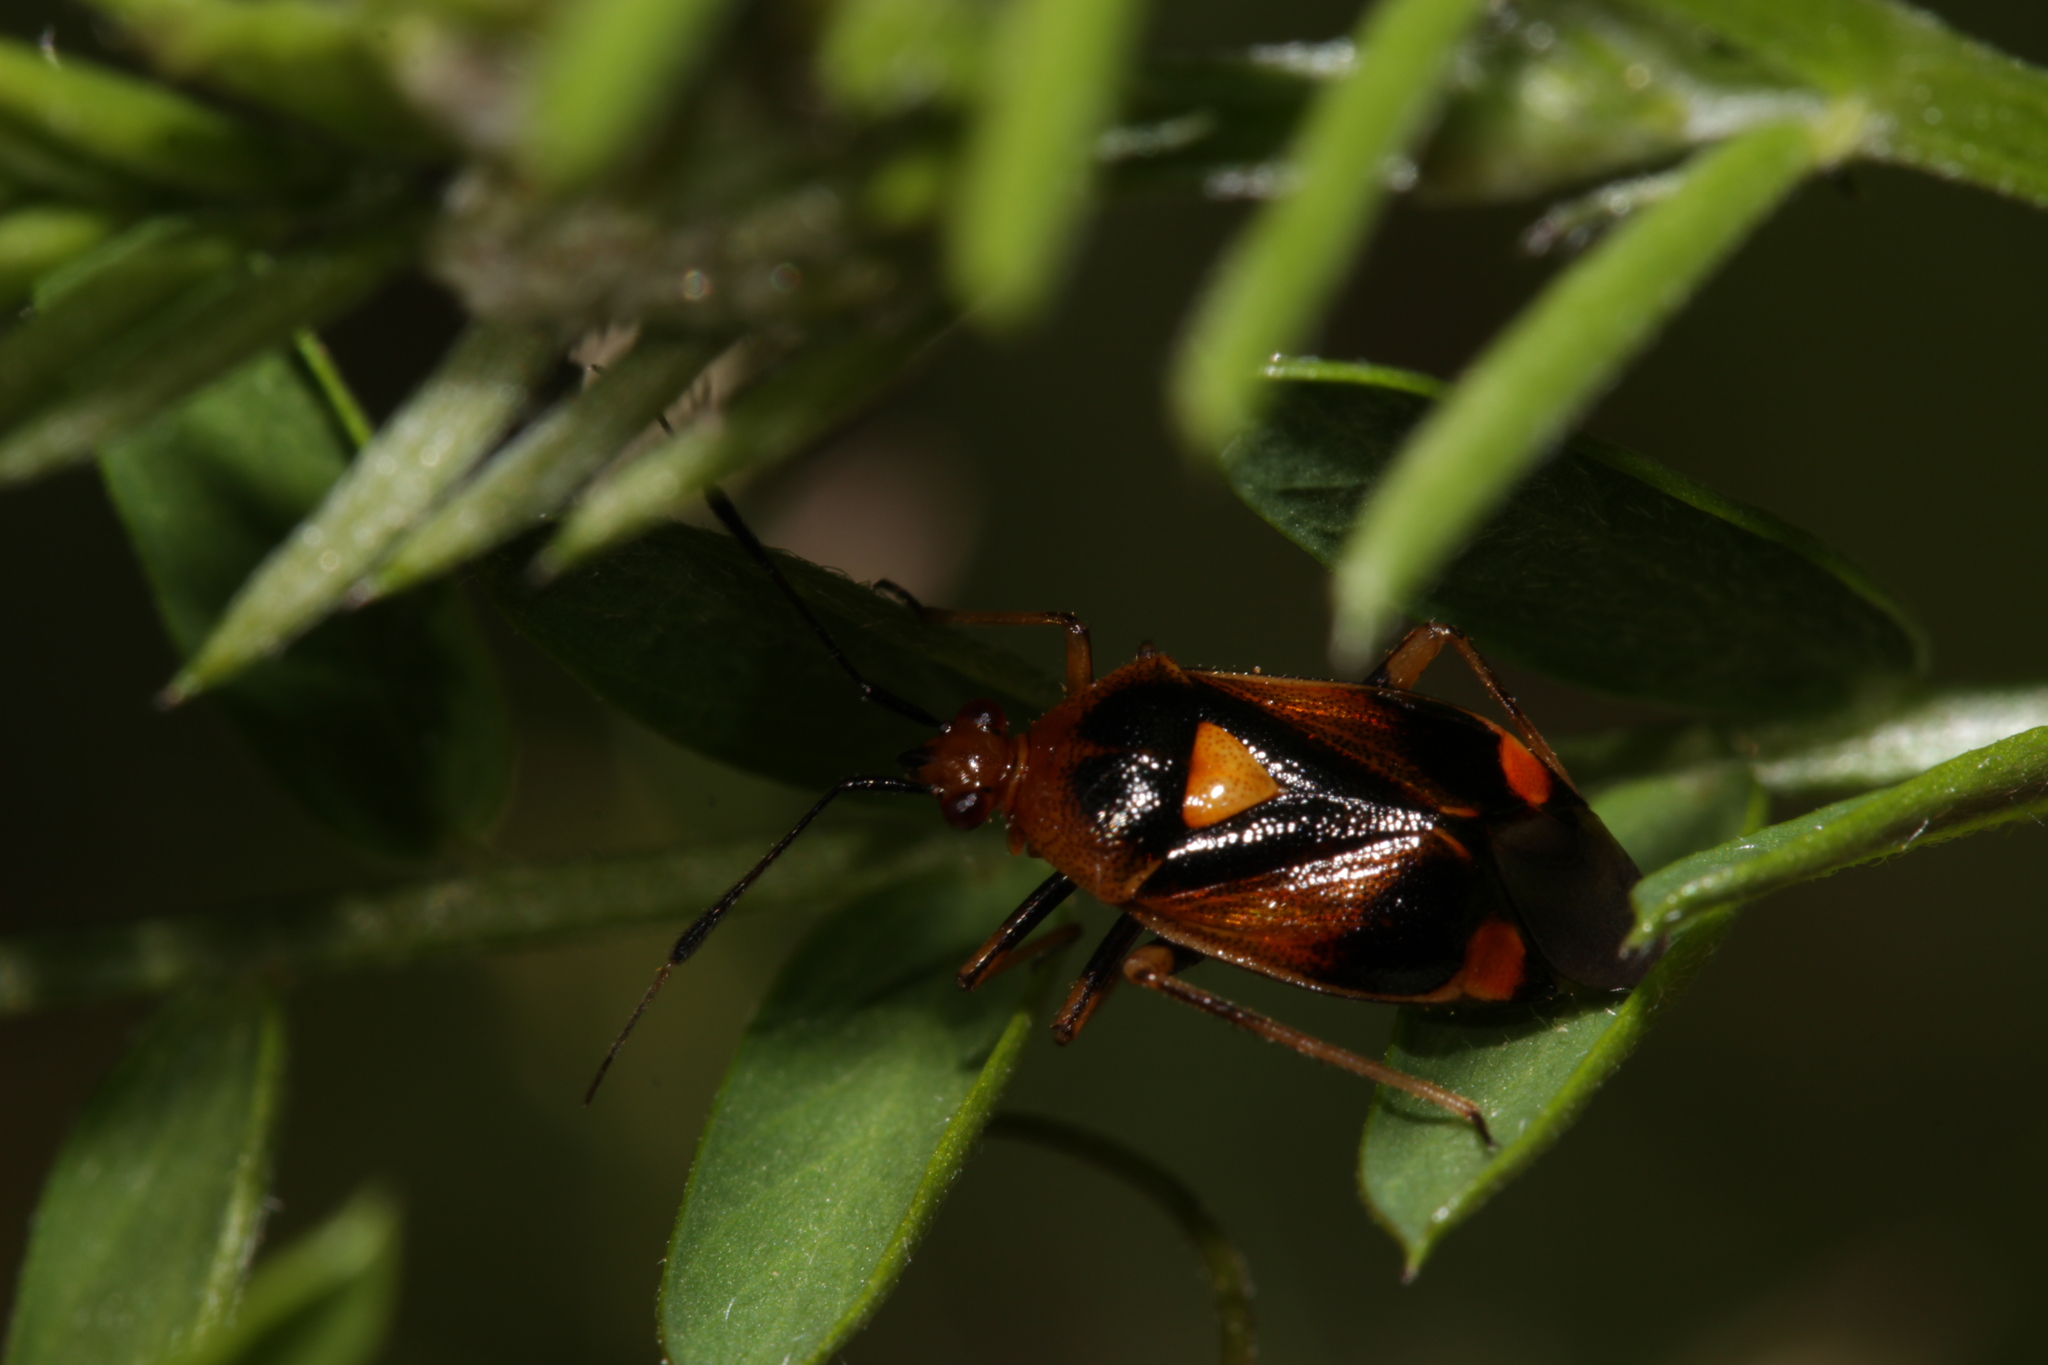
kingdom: Animalia
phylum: Arthropoda
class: Insecta
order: Hemiptera
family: Miridae
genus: Deraeocoris
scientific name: Deraeocoris ruber
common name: Plant bug
